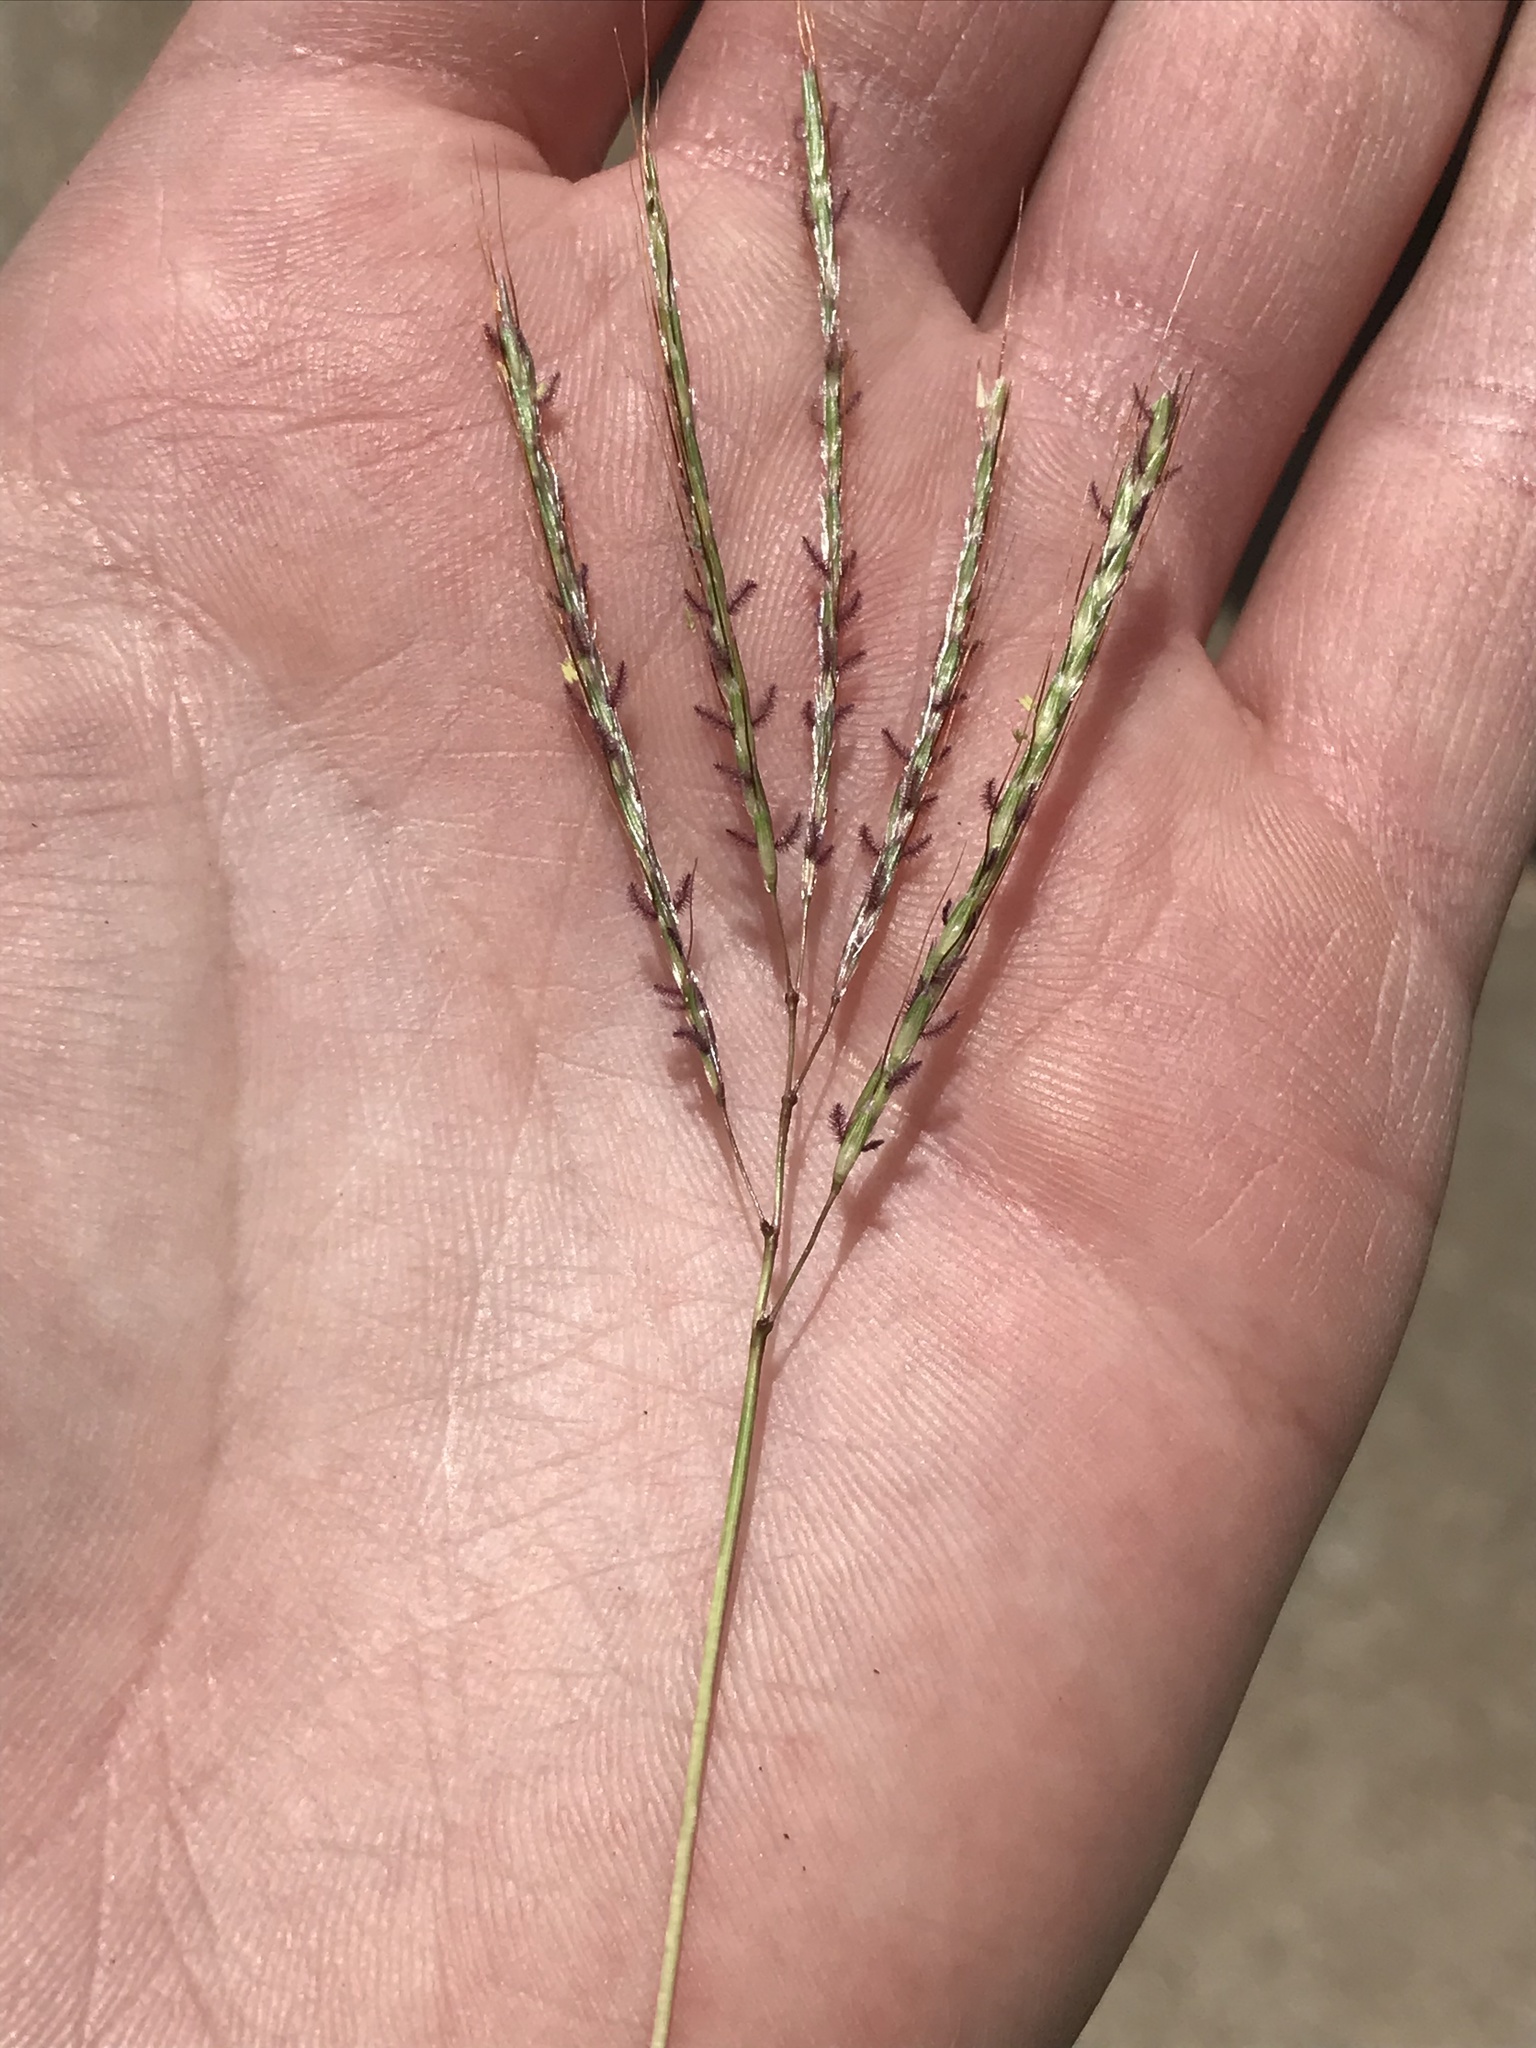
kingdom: Plantae
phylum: Tracheophyta
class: Liliopsida
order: Poales
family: Poaceae
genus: Bothriochloa
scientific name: Bothriochloa ischaemum
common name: Yellow bluestem
